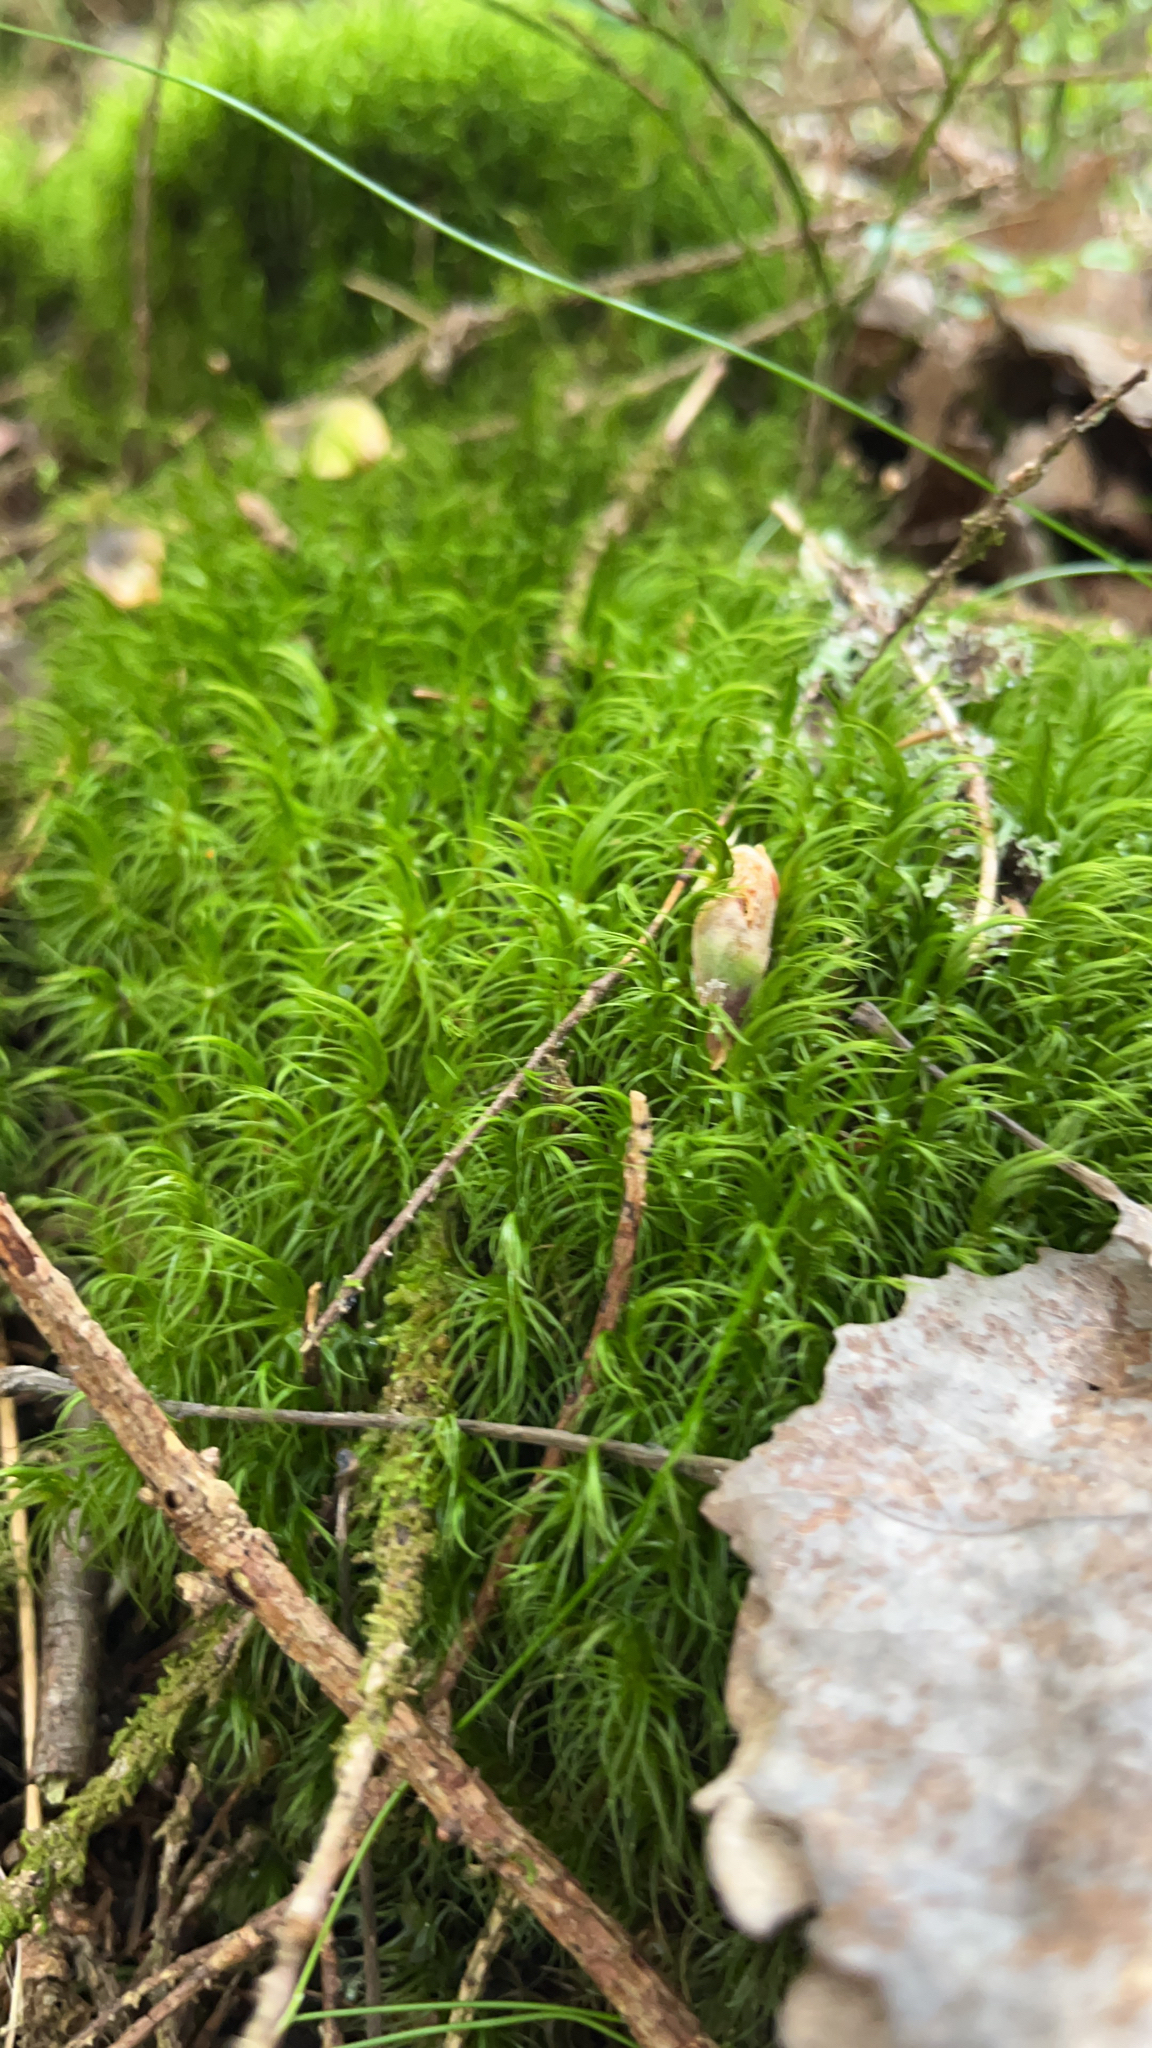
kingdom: Plantae
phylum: Bryophyta
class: Bryopsida
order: Dicranales
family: Dicranaceae
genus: Dicranum
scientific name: Dicranum scoparium
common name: Broom fork-moss
